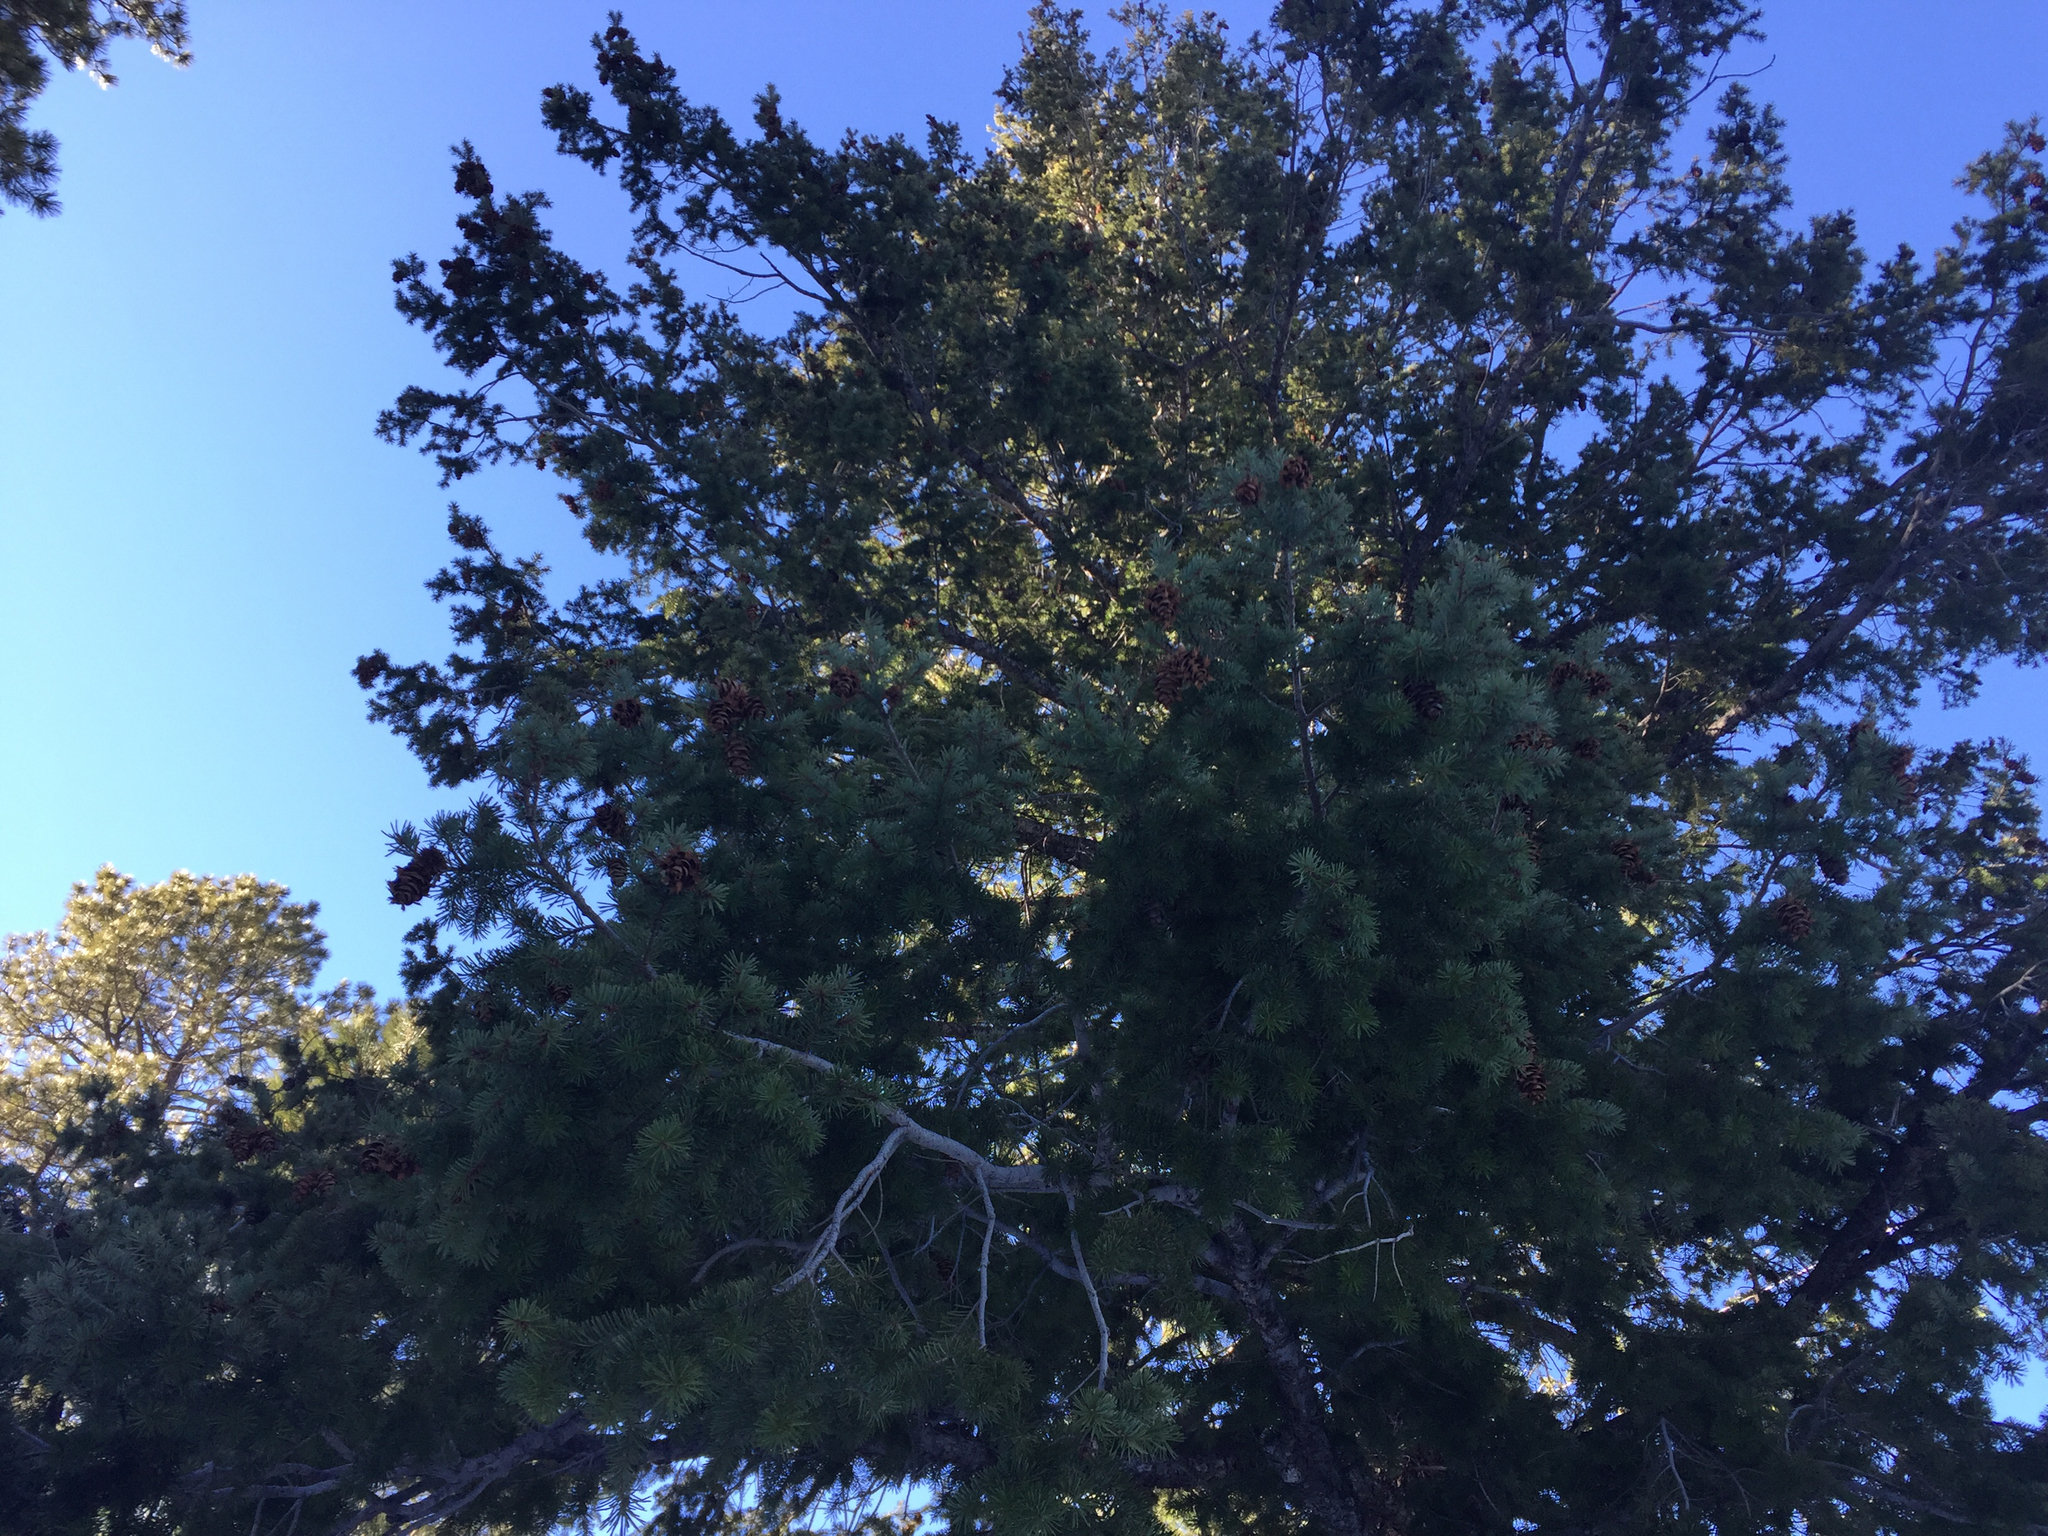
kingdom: Plantae
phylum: Tracheophyta
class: Pinopsida
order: Pinales
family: Pinaceae
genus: Pseudotsuga
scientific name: Pseudotsuga menziesii
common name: Douglas fir
